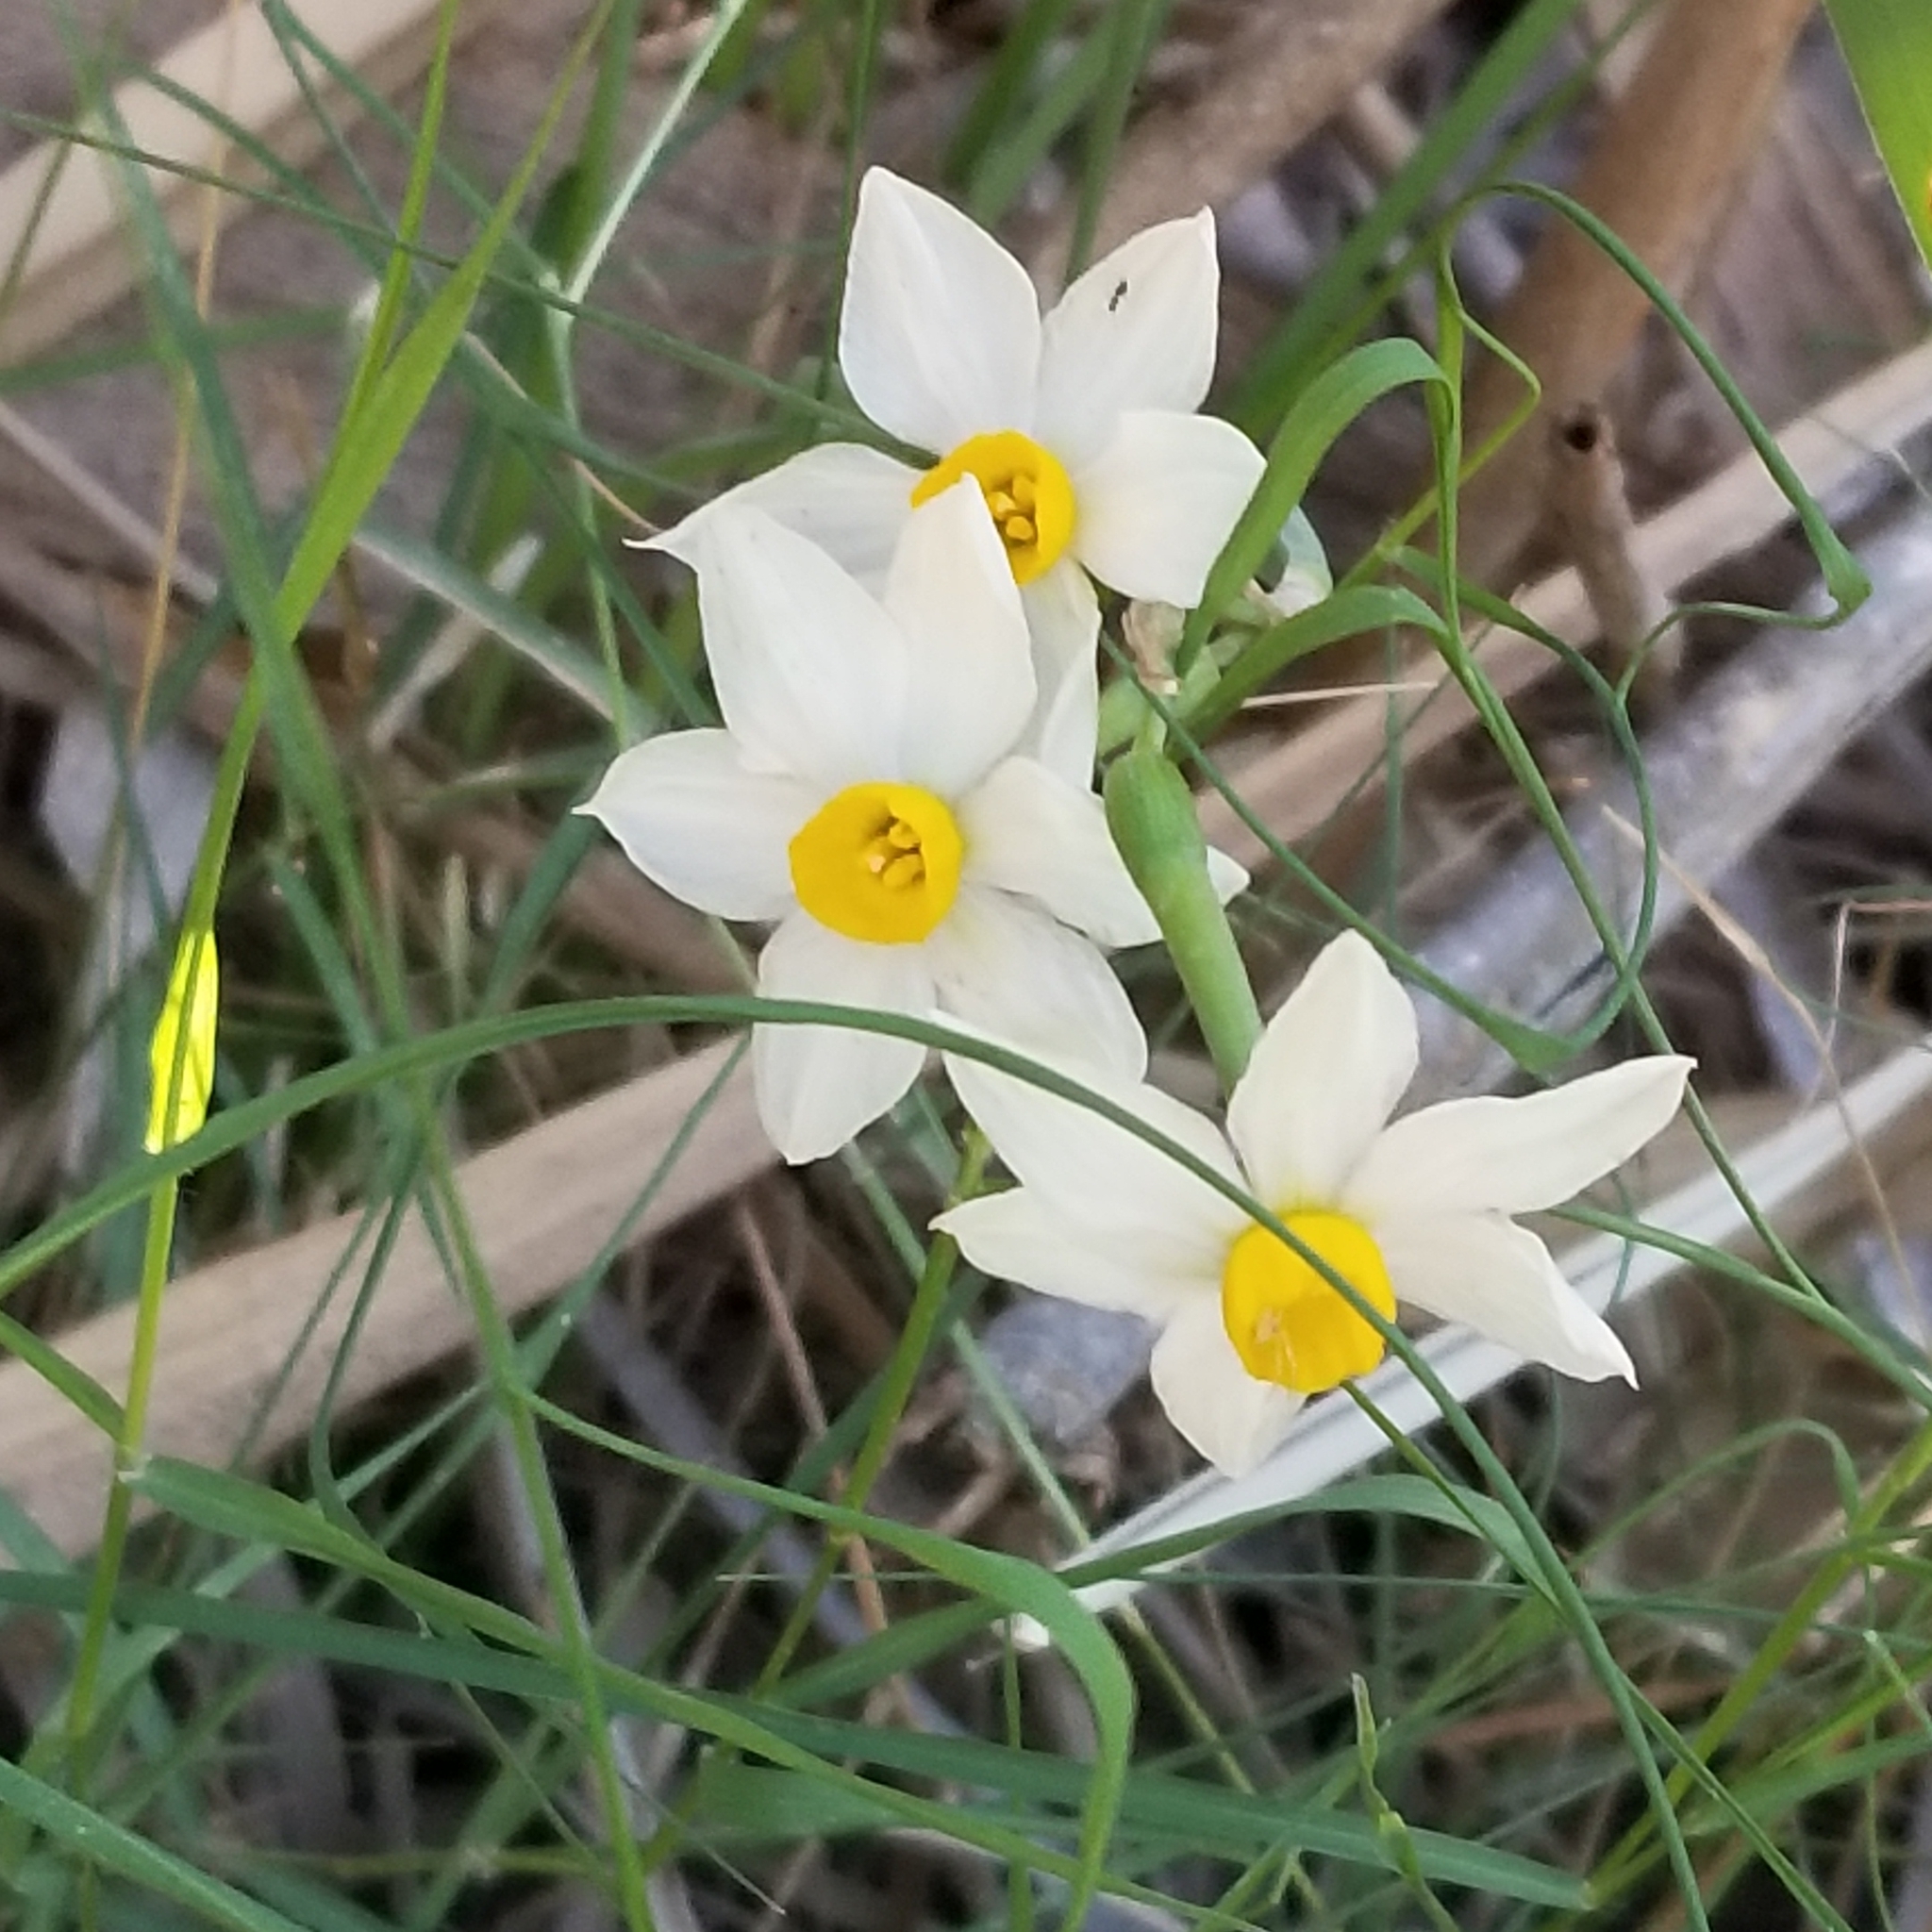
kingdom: Plantae
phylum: Tracheophyta
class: Liliopsida
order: Asparagales
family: Amaryllidaceae
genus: Narcissus
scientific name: Narcissus tazetta
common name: Bunch-flowered daffodil
